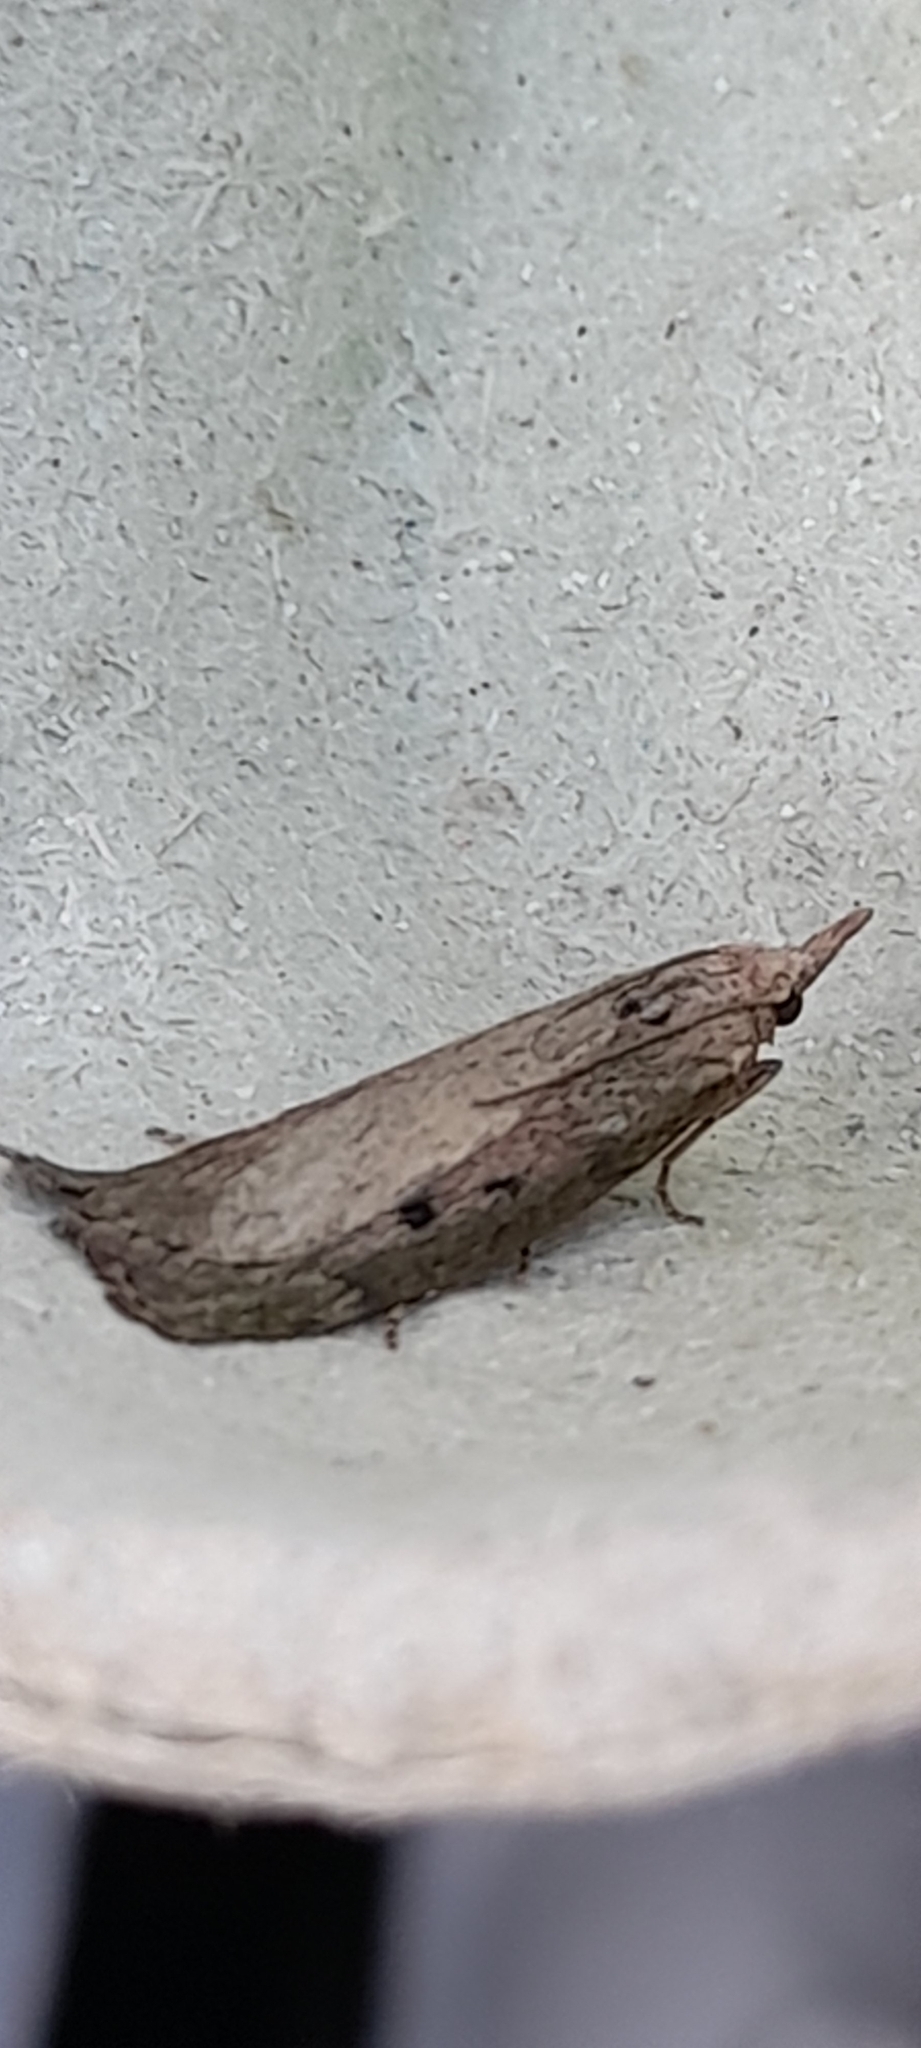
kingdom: Animalia
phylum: Arthropoda
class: Insecta
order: Lepidoptera
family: Pyralidae
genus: Aphomia
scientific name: Aphomia sociella
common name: Bee moth
